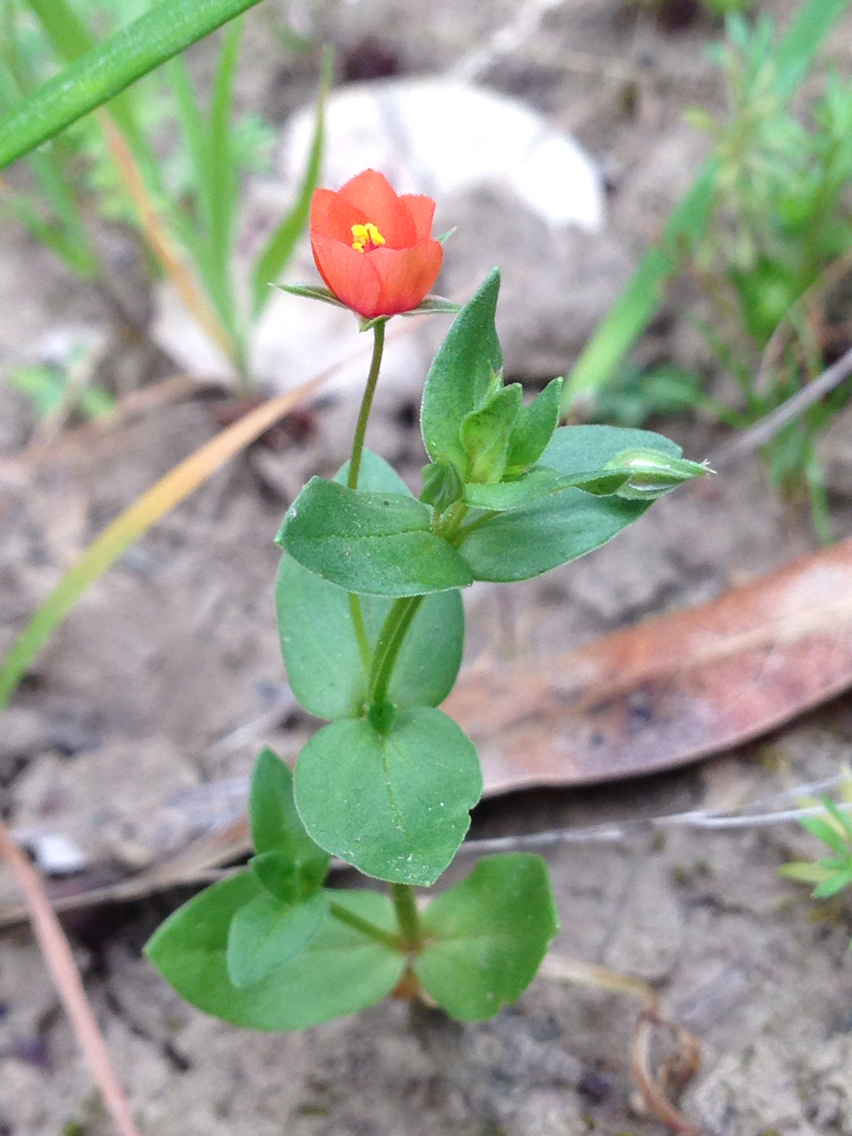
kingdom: Plantae
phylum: Tracheophyta
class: Magnoliopsida
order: Ericales
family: Primulaceae
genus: Lysimachia
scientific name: Lysimachia arvensis
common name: Scarlet pimpernel
